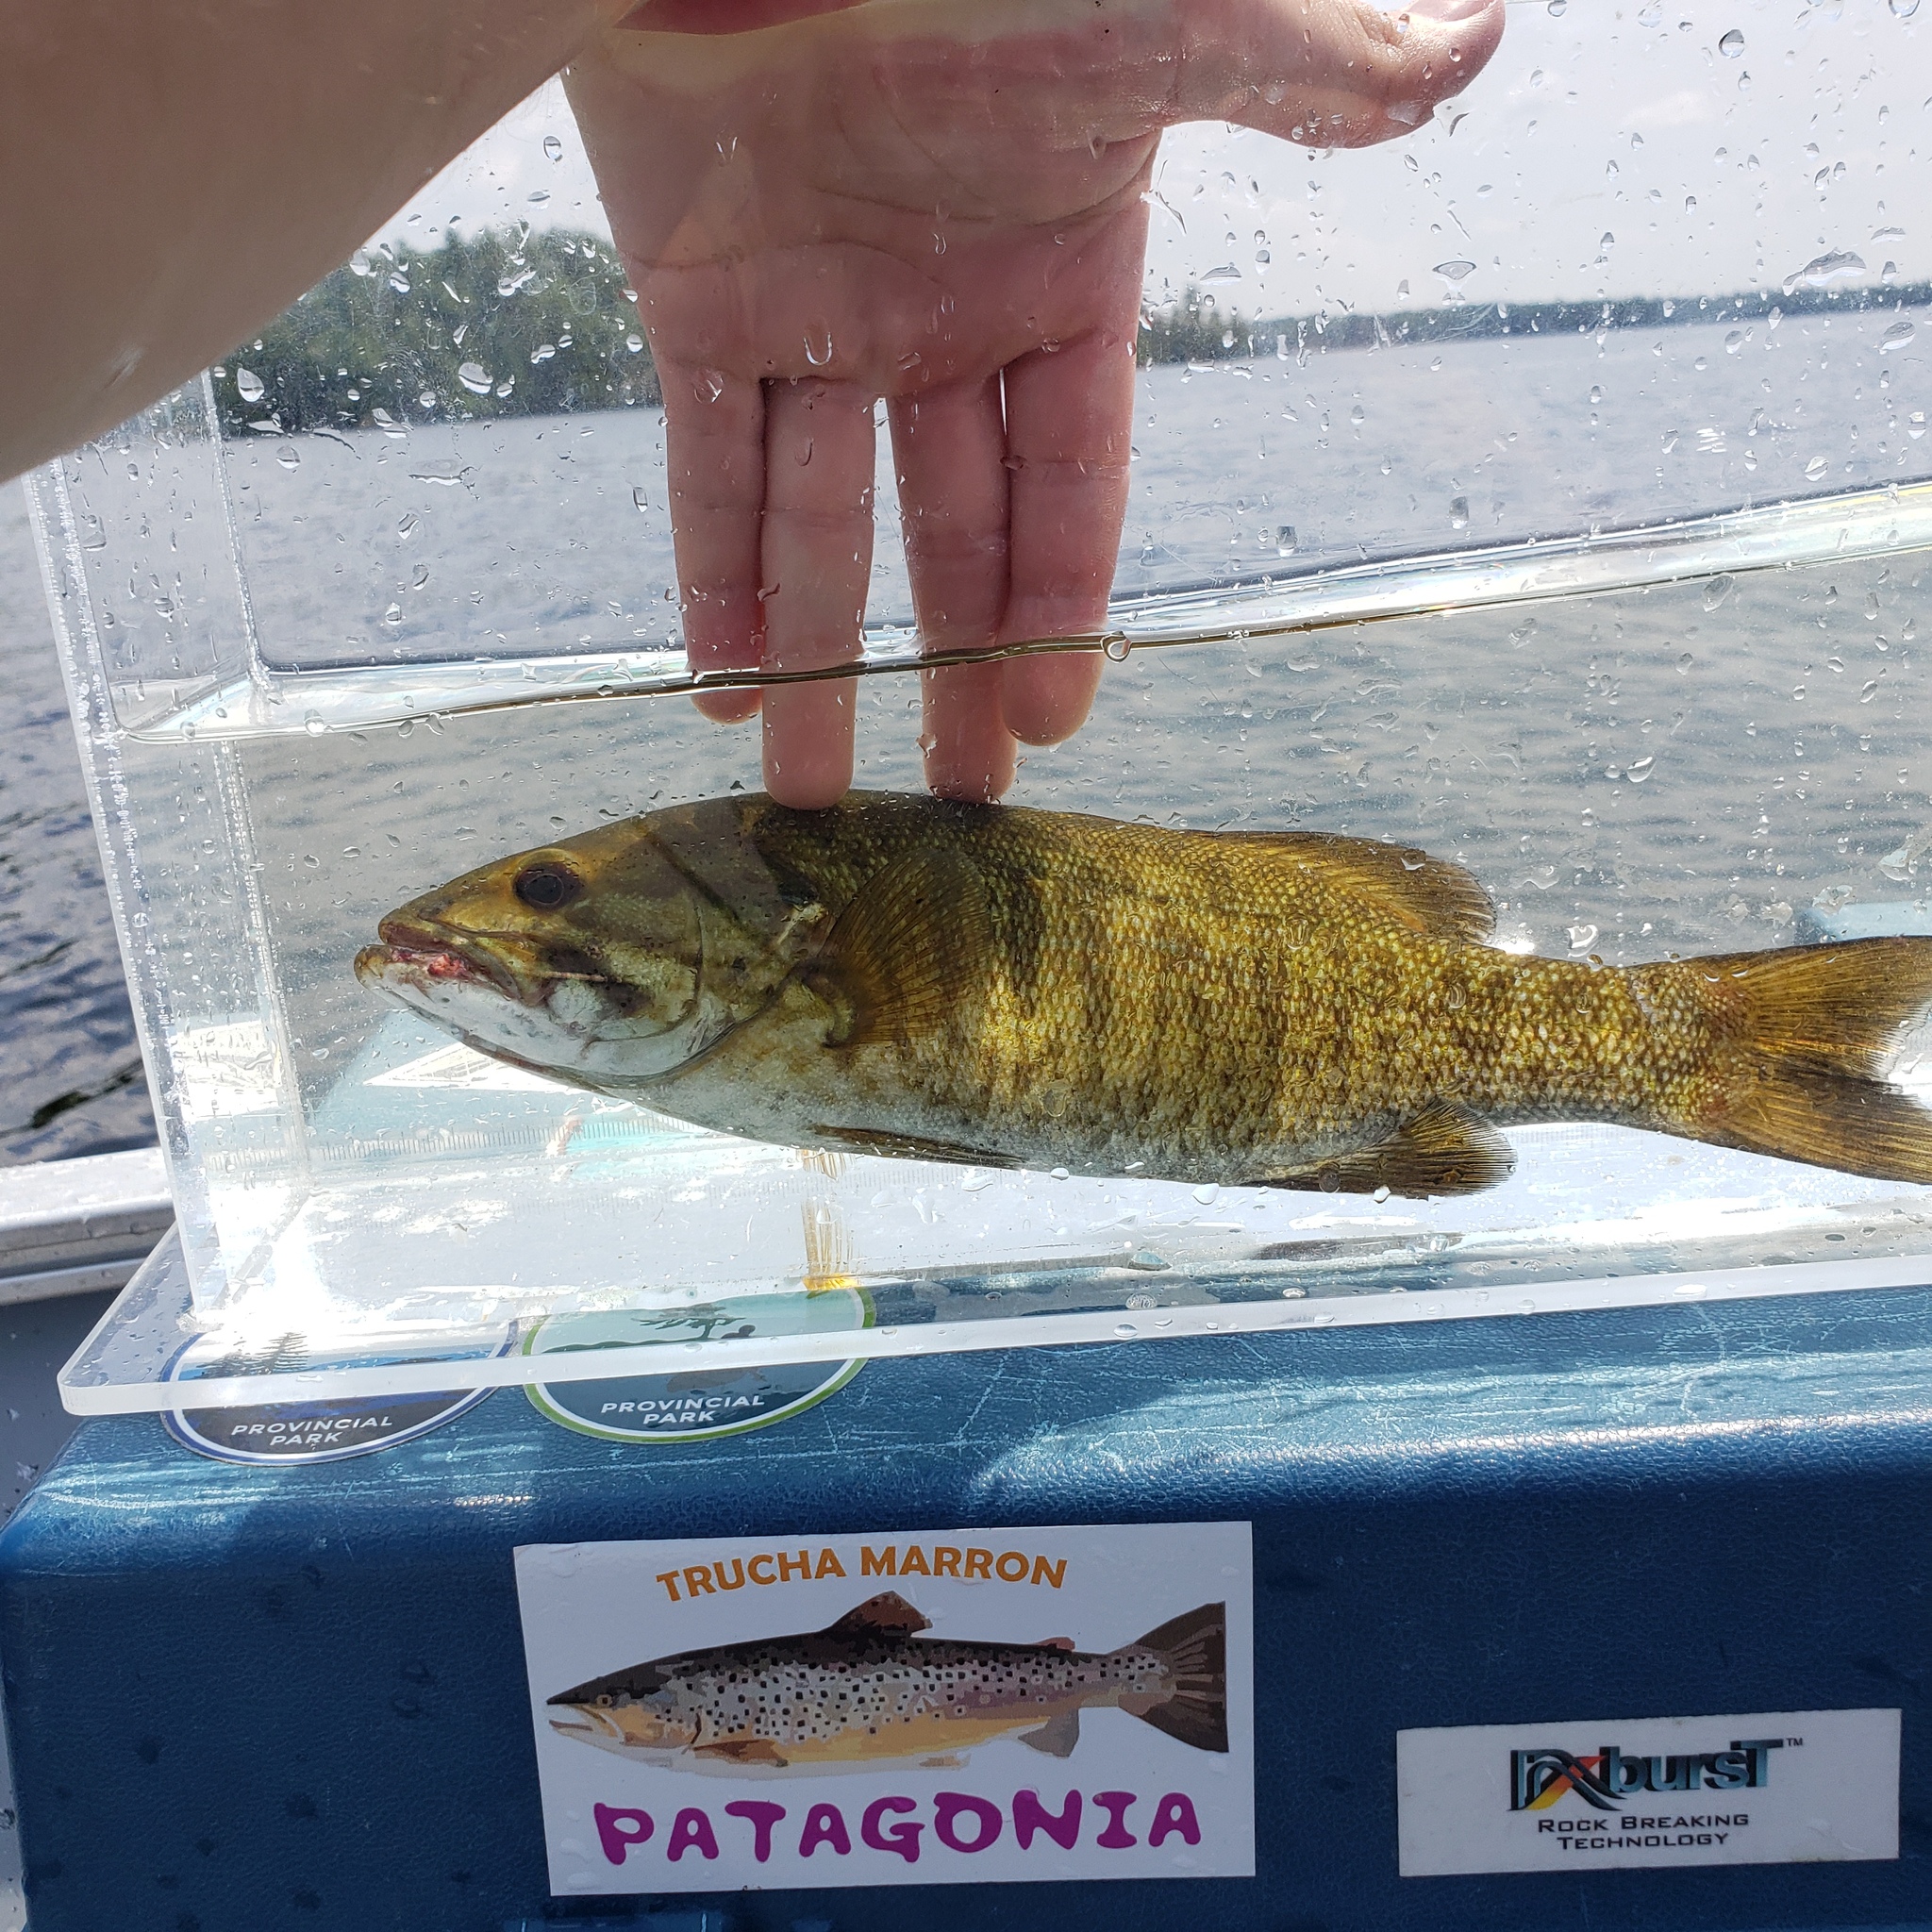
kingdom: Animalia
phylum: Chordata
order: Perciformes
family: Centrarchidae
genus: Micropterus
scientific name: Micropterus dolomieu
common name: Smallmouth bass
